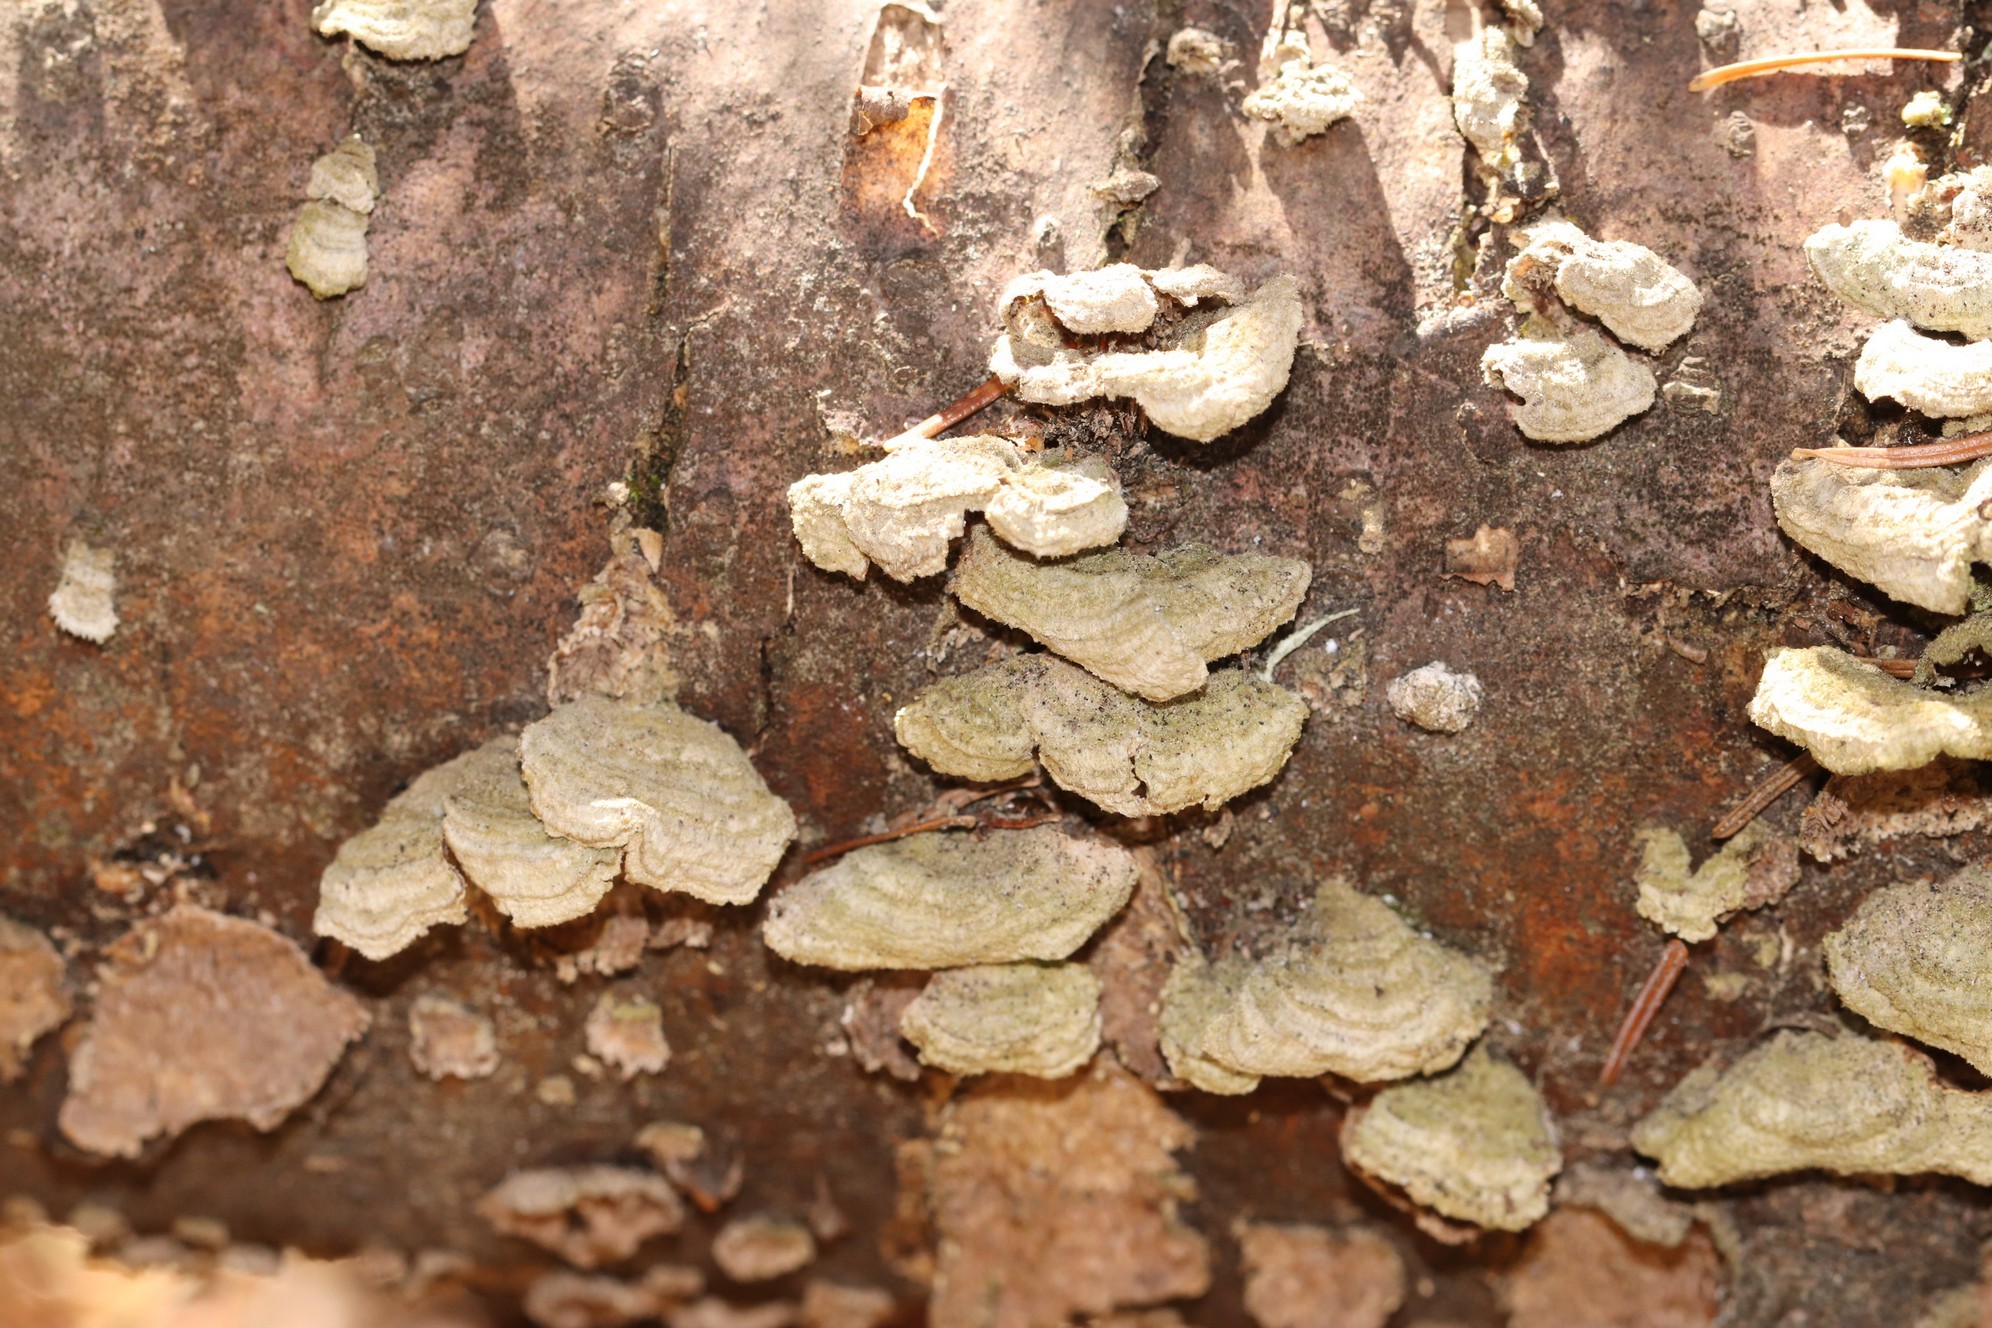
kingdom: Fungi
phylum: Basidiomycota
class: Agaricomycetes
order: Hymenochaetales
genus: Trichaptum
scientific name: Trichaptum fuscoviolaceum
